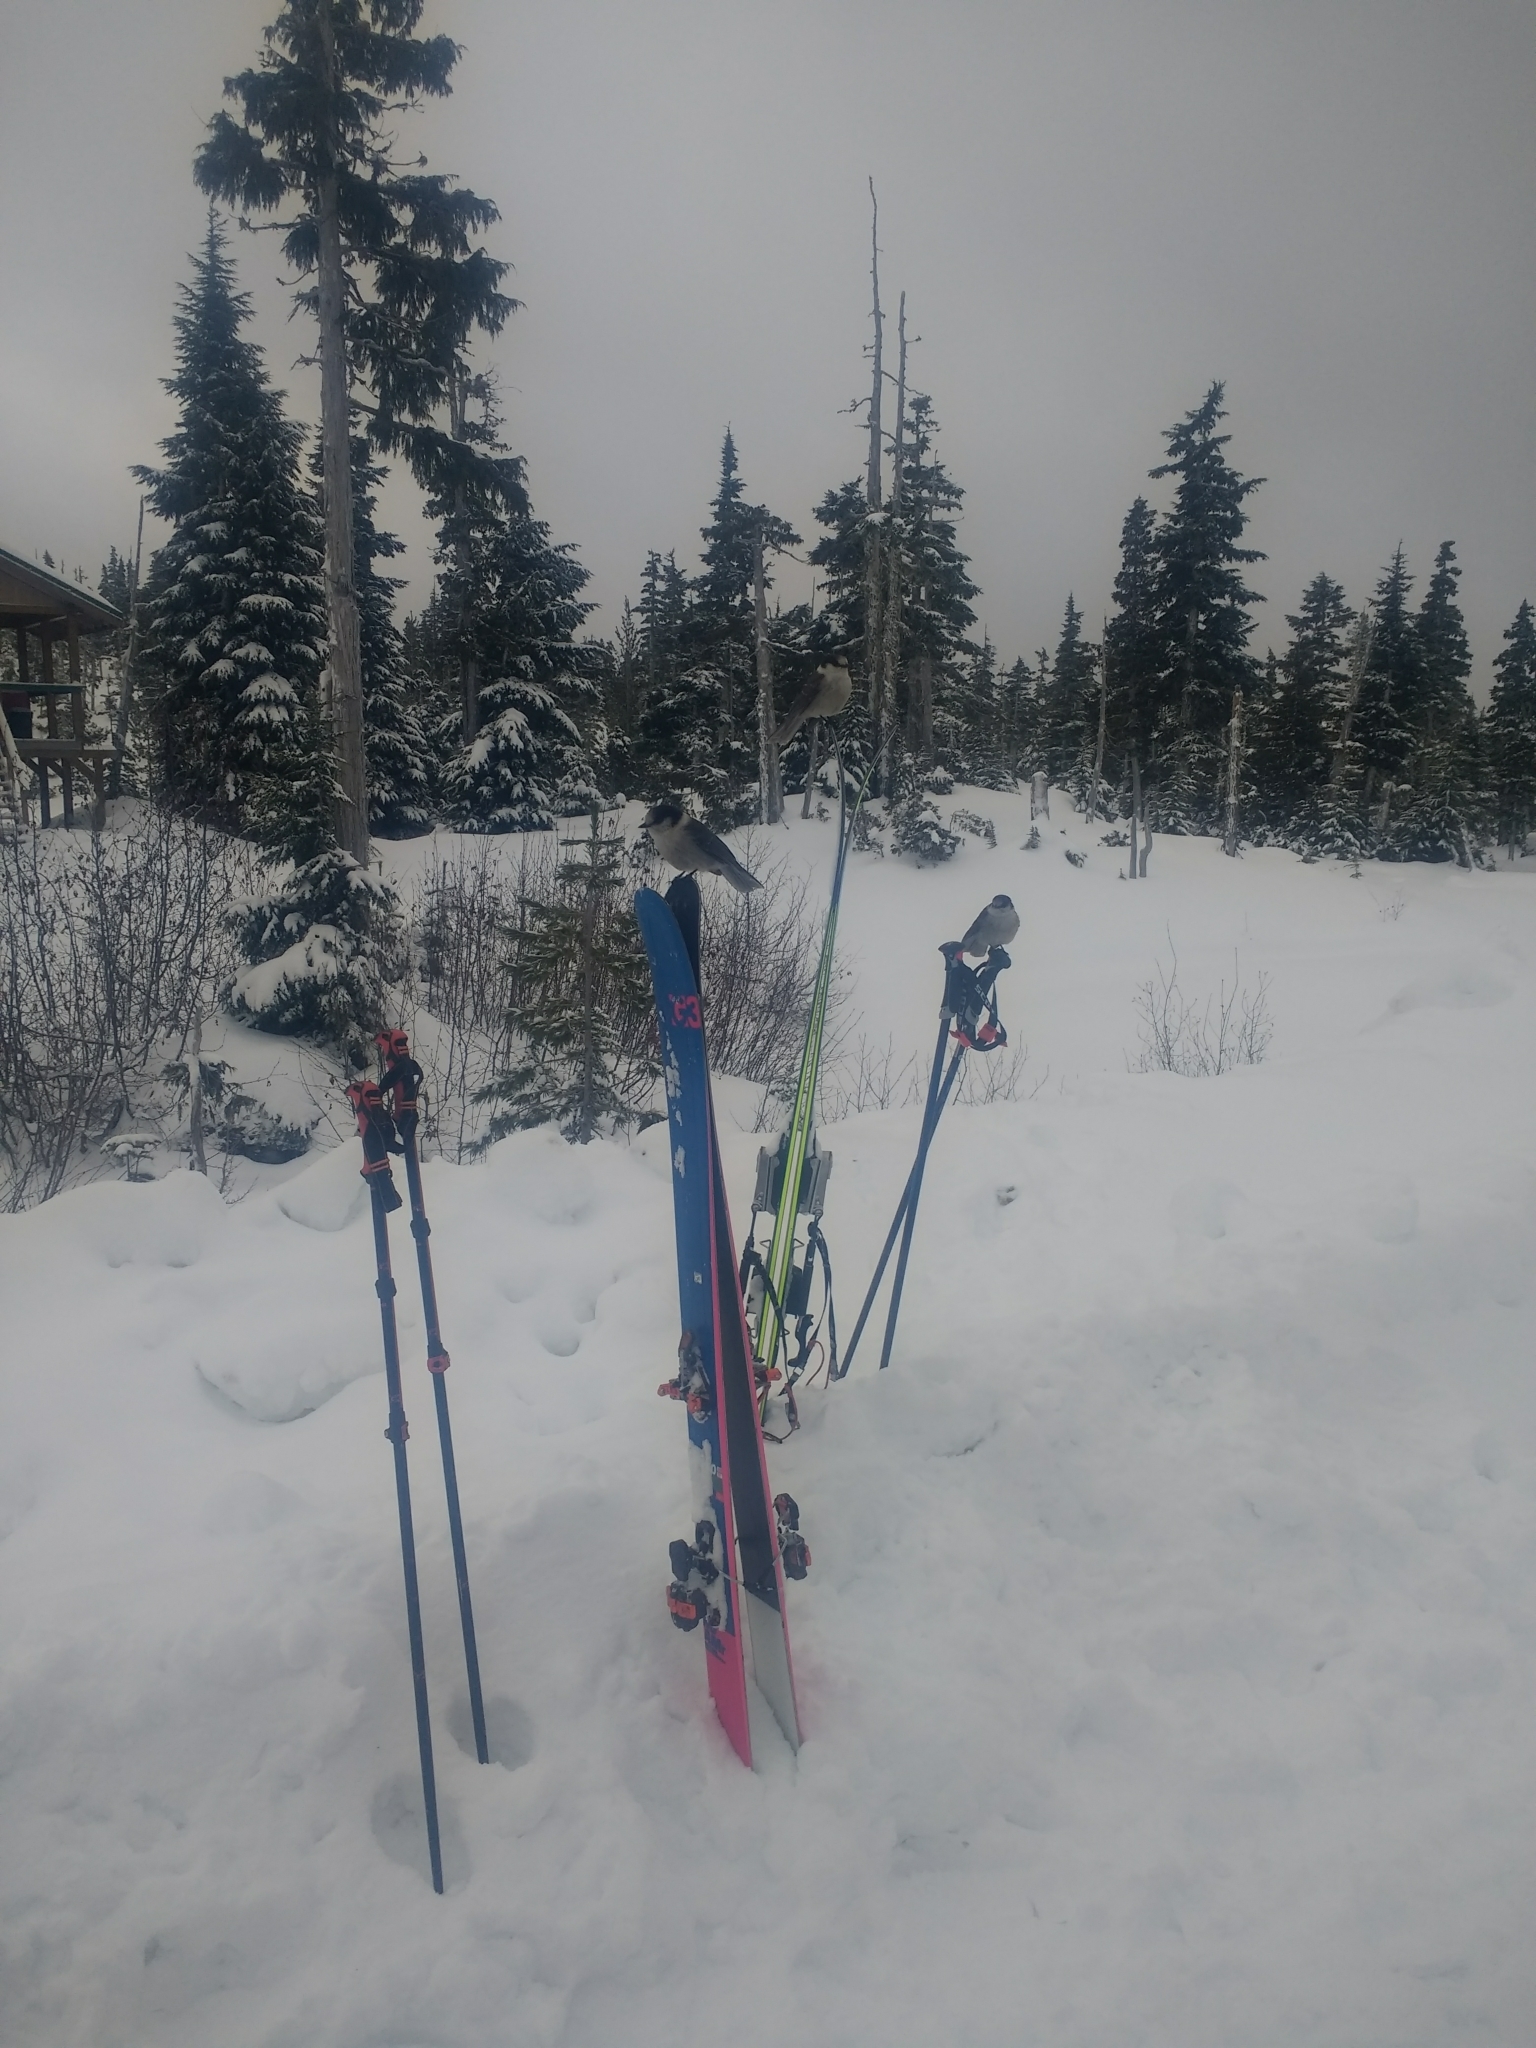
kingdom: Animalia
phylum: Chordata
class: Aves
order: Passeriformes
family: Corvidae
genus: Perisoreus
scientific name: Perisoreus canadensis
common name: Gray jay
